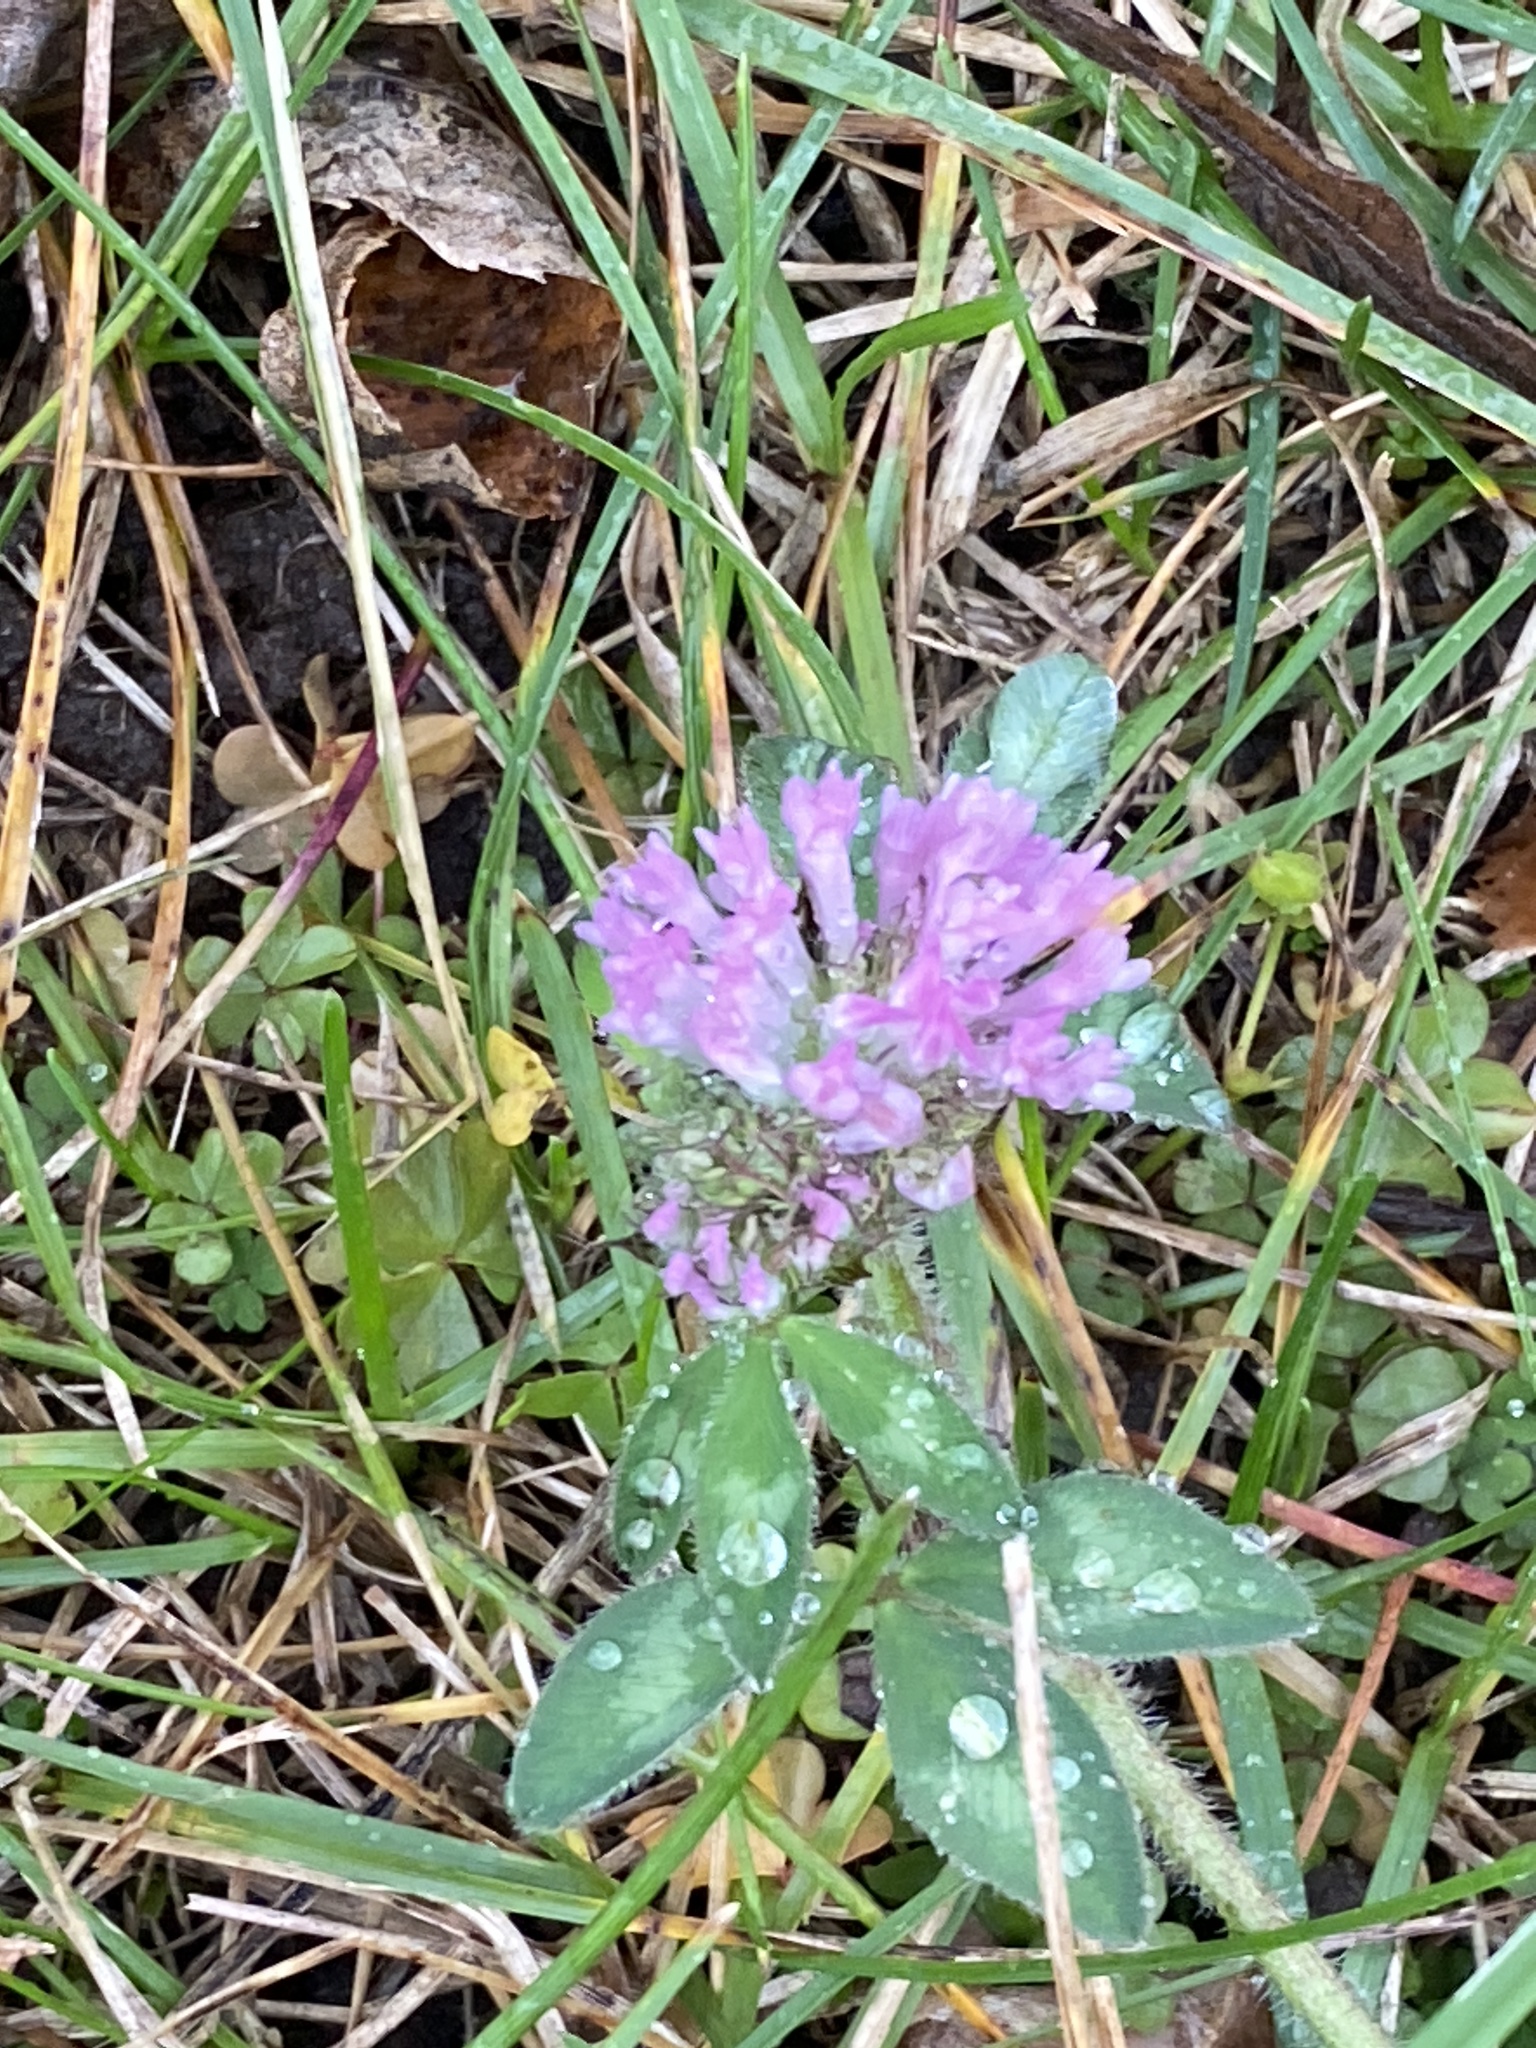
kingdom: Plantae
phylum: Tracheophyta
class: Magnoliopsida
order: Fabales
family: Fabaceae
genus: Trifolium
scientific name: Trifolium pratense
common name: Red clover
